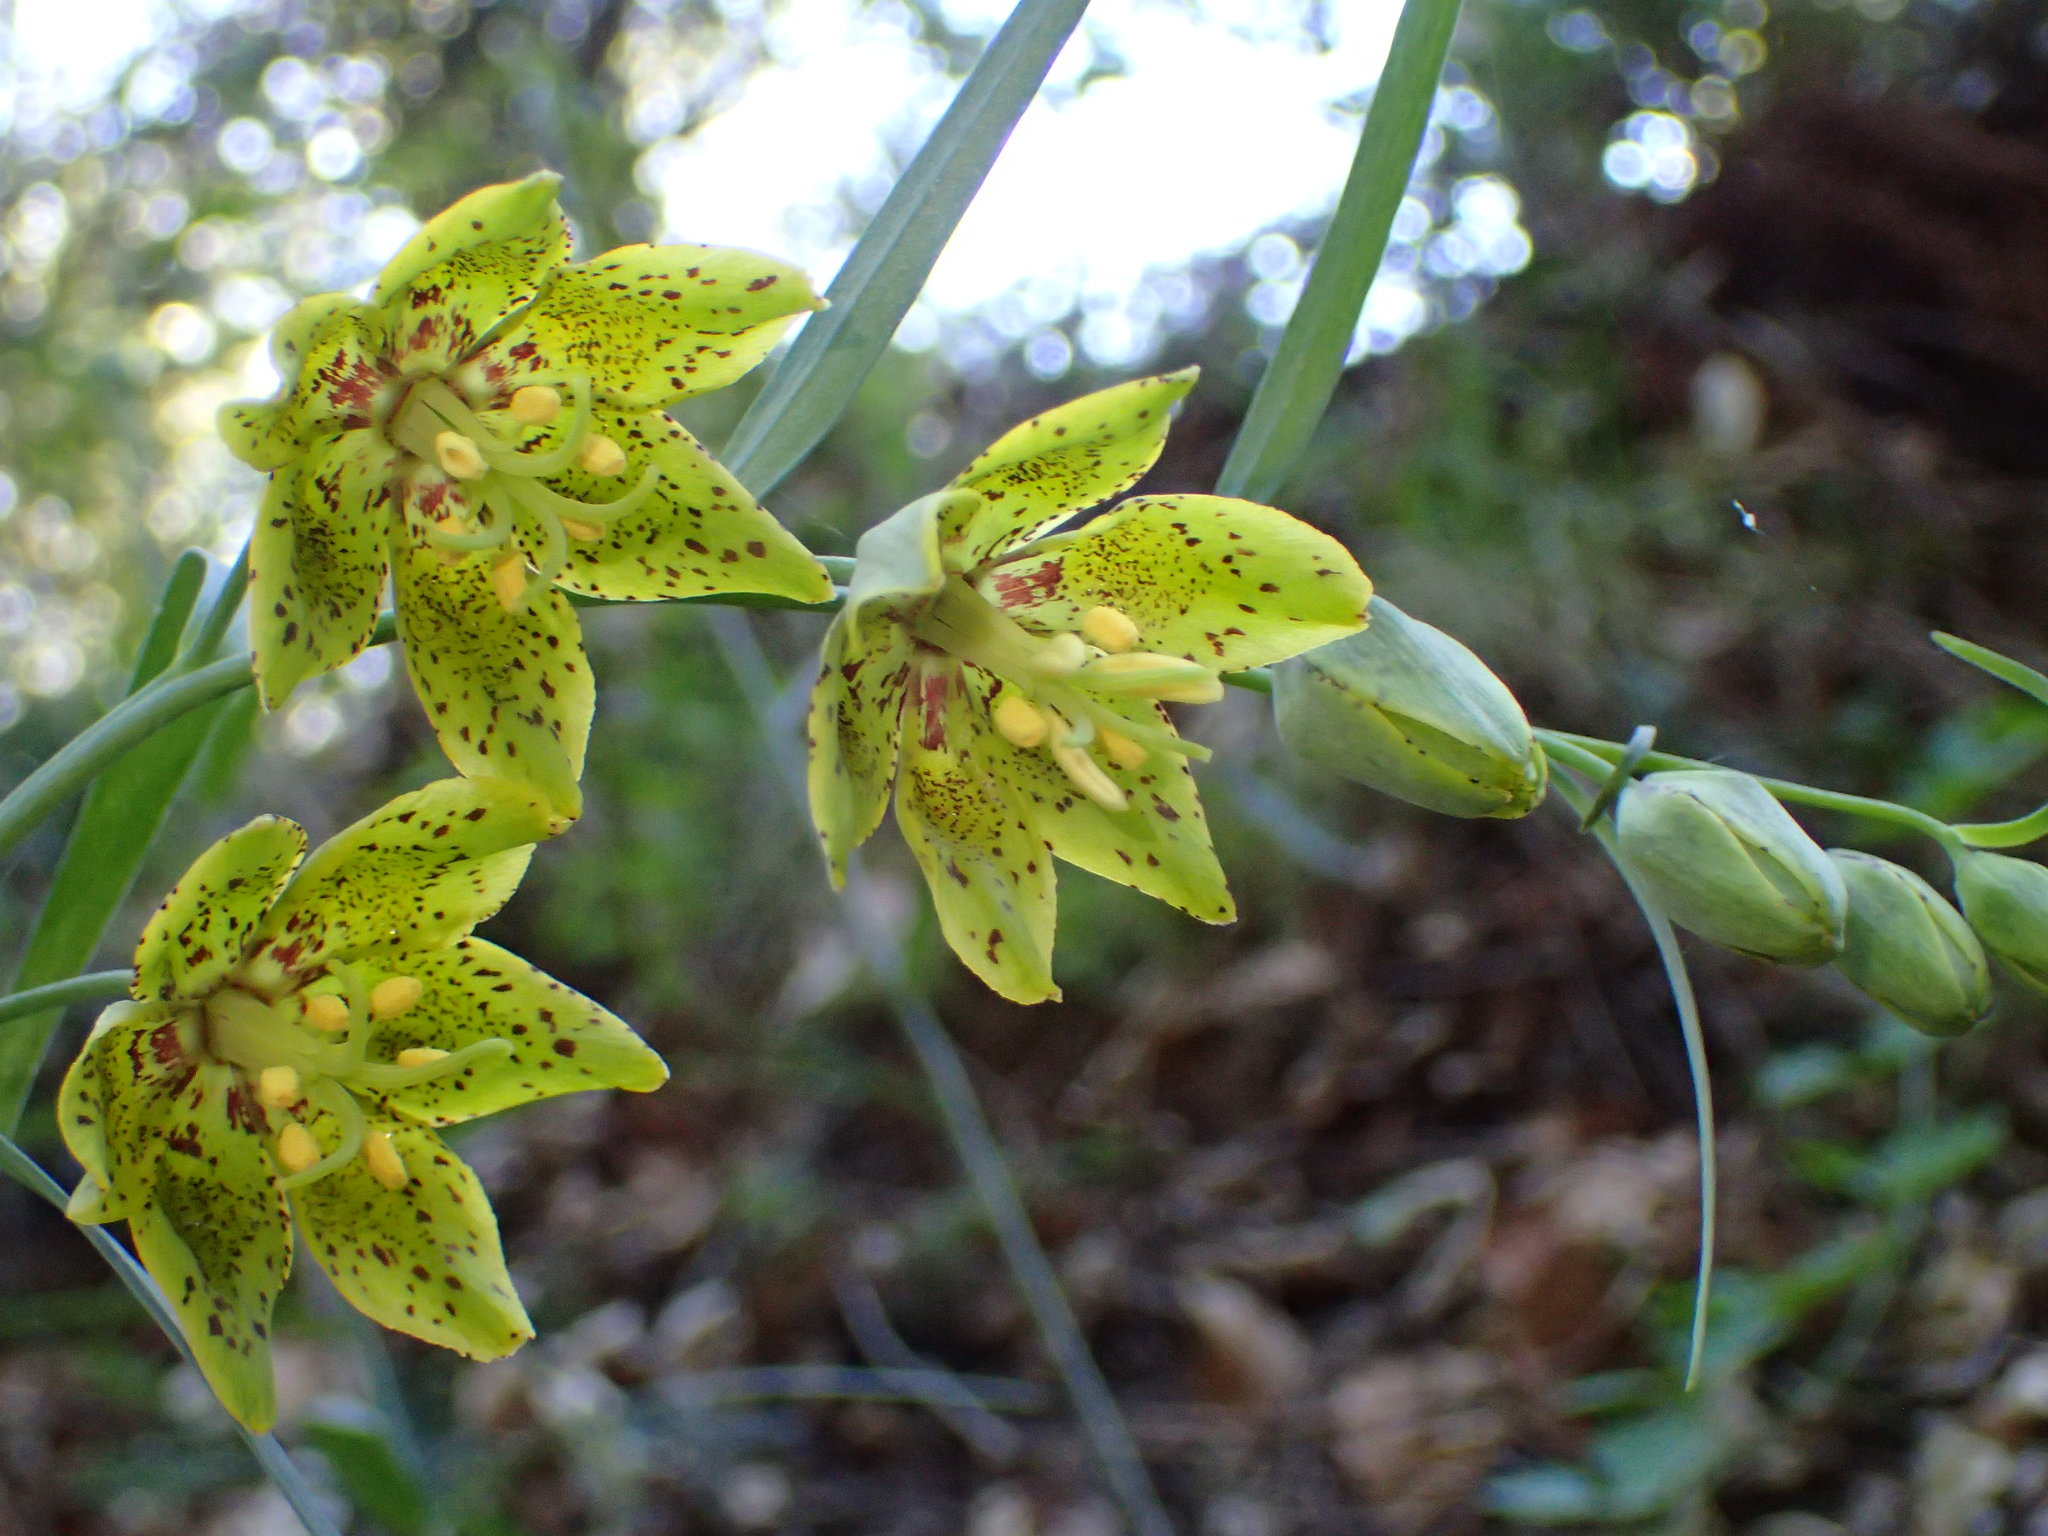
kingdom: Plantae
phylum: Tracheophyta
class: Liliopsida
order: Liliales
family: Liliaceae
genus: Fritillaria
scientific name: Fritillaria ojaiensis
